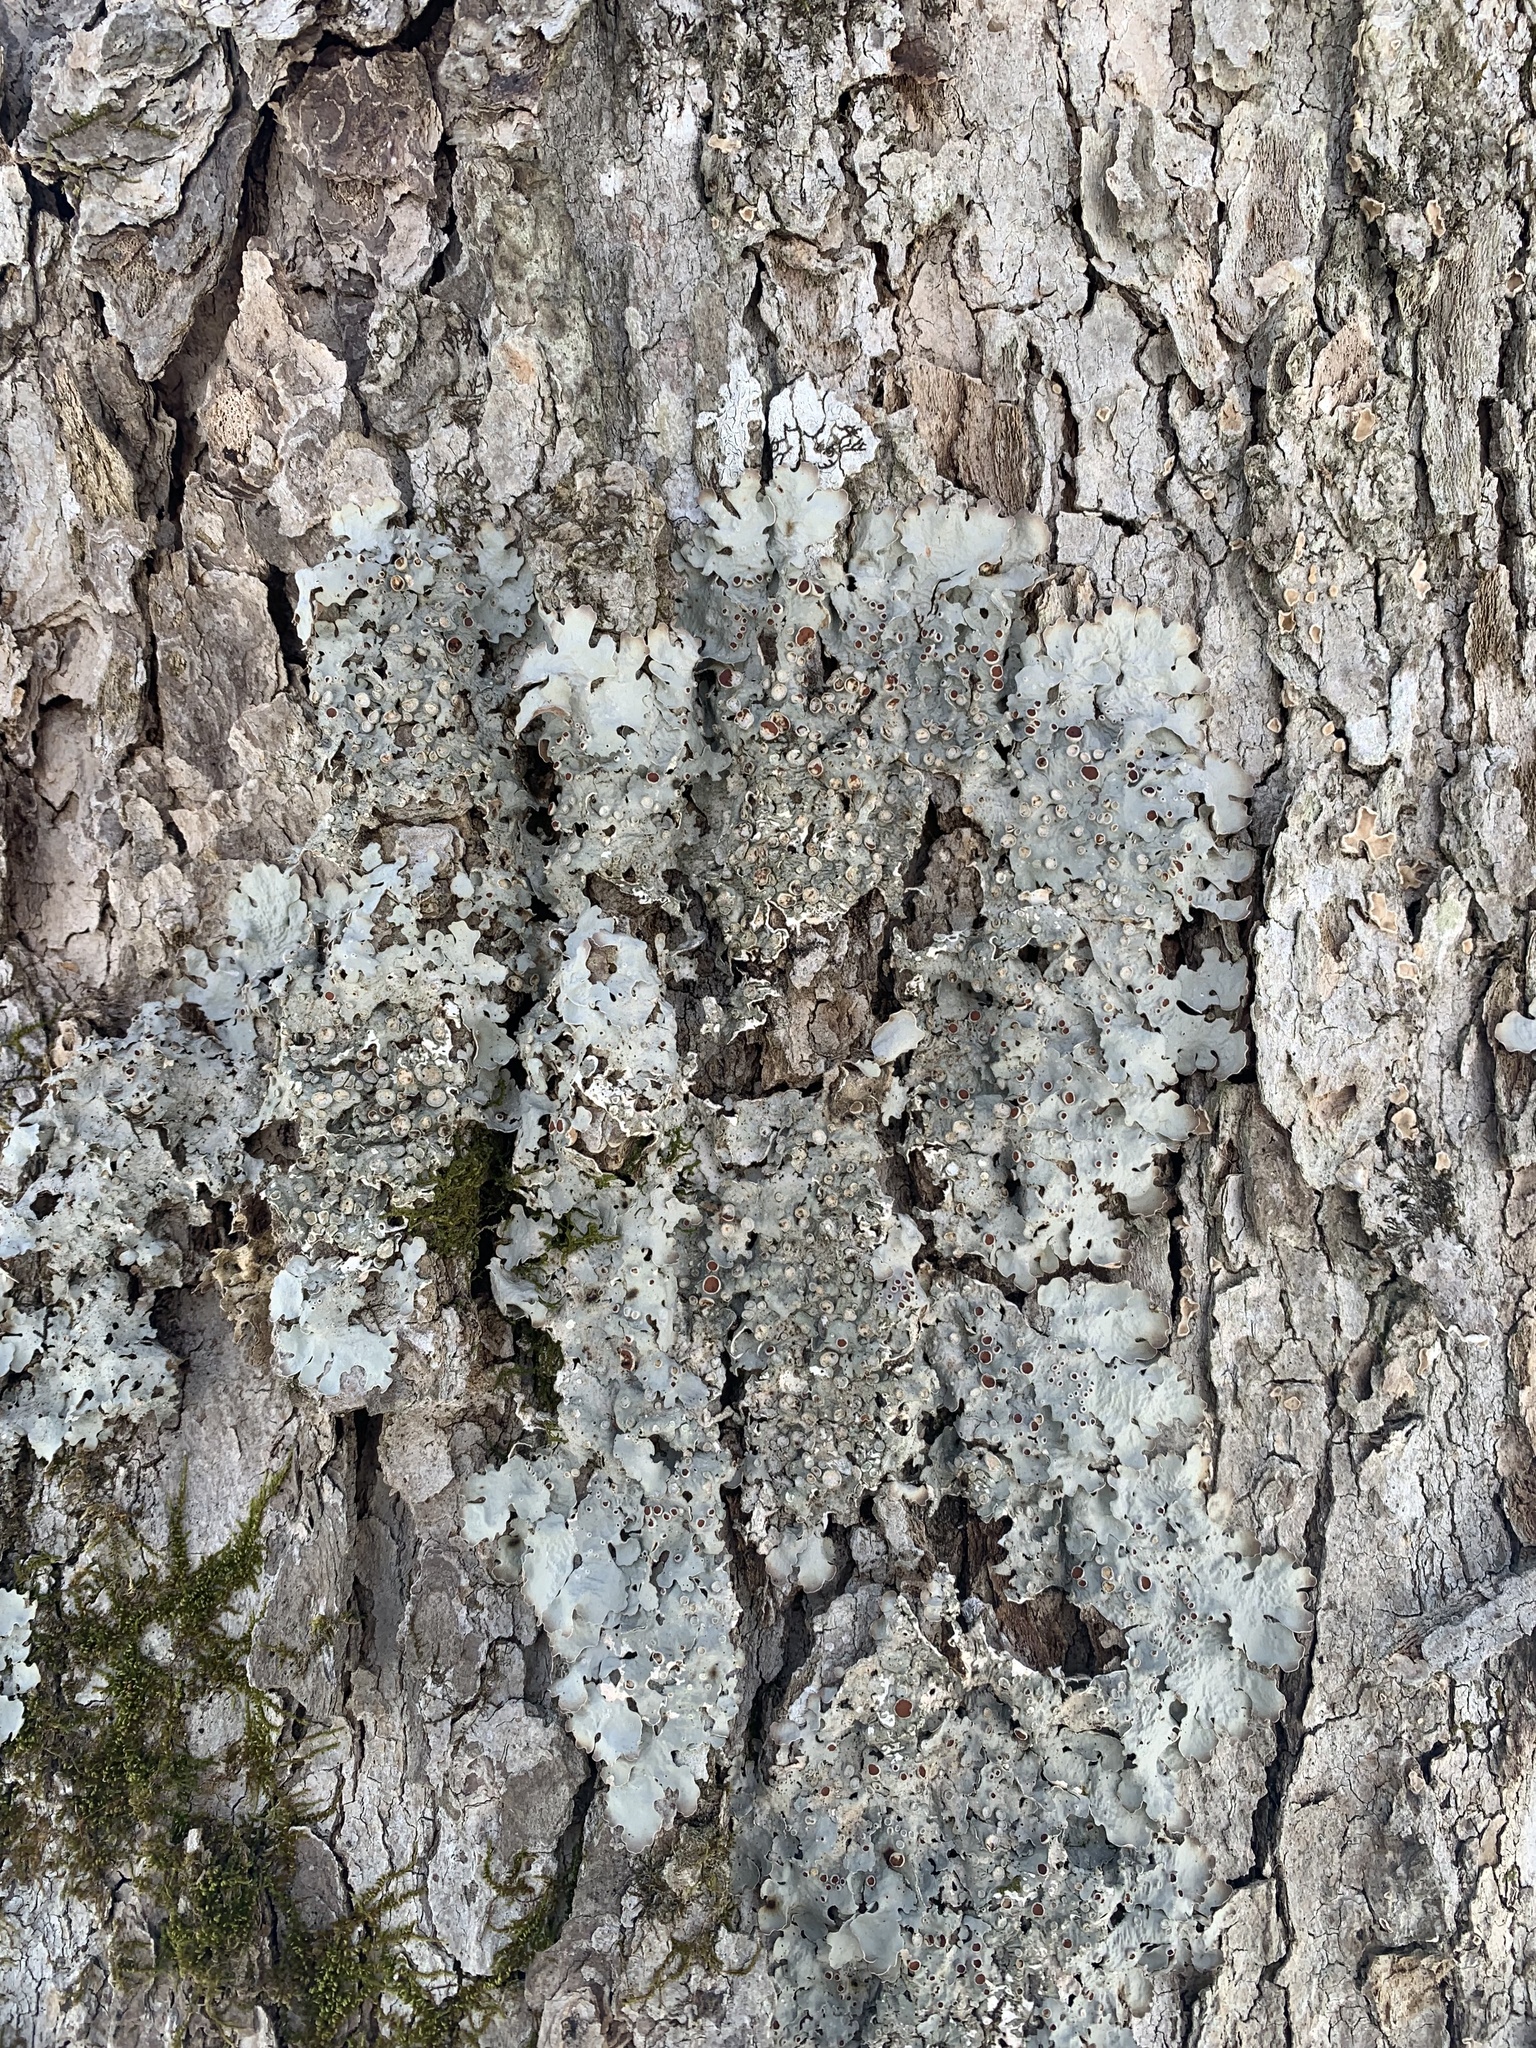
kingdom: Fungi
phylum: Ascomycota
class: Lecanoromycetes
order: Peltigerales
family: Lobariaceae
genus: Ricasolia
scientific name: Ricasolia quercizans
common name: Smooth lungwort
